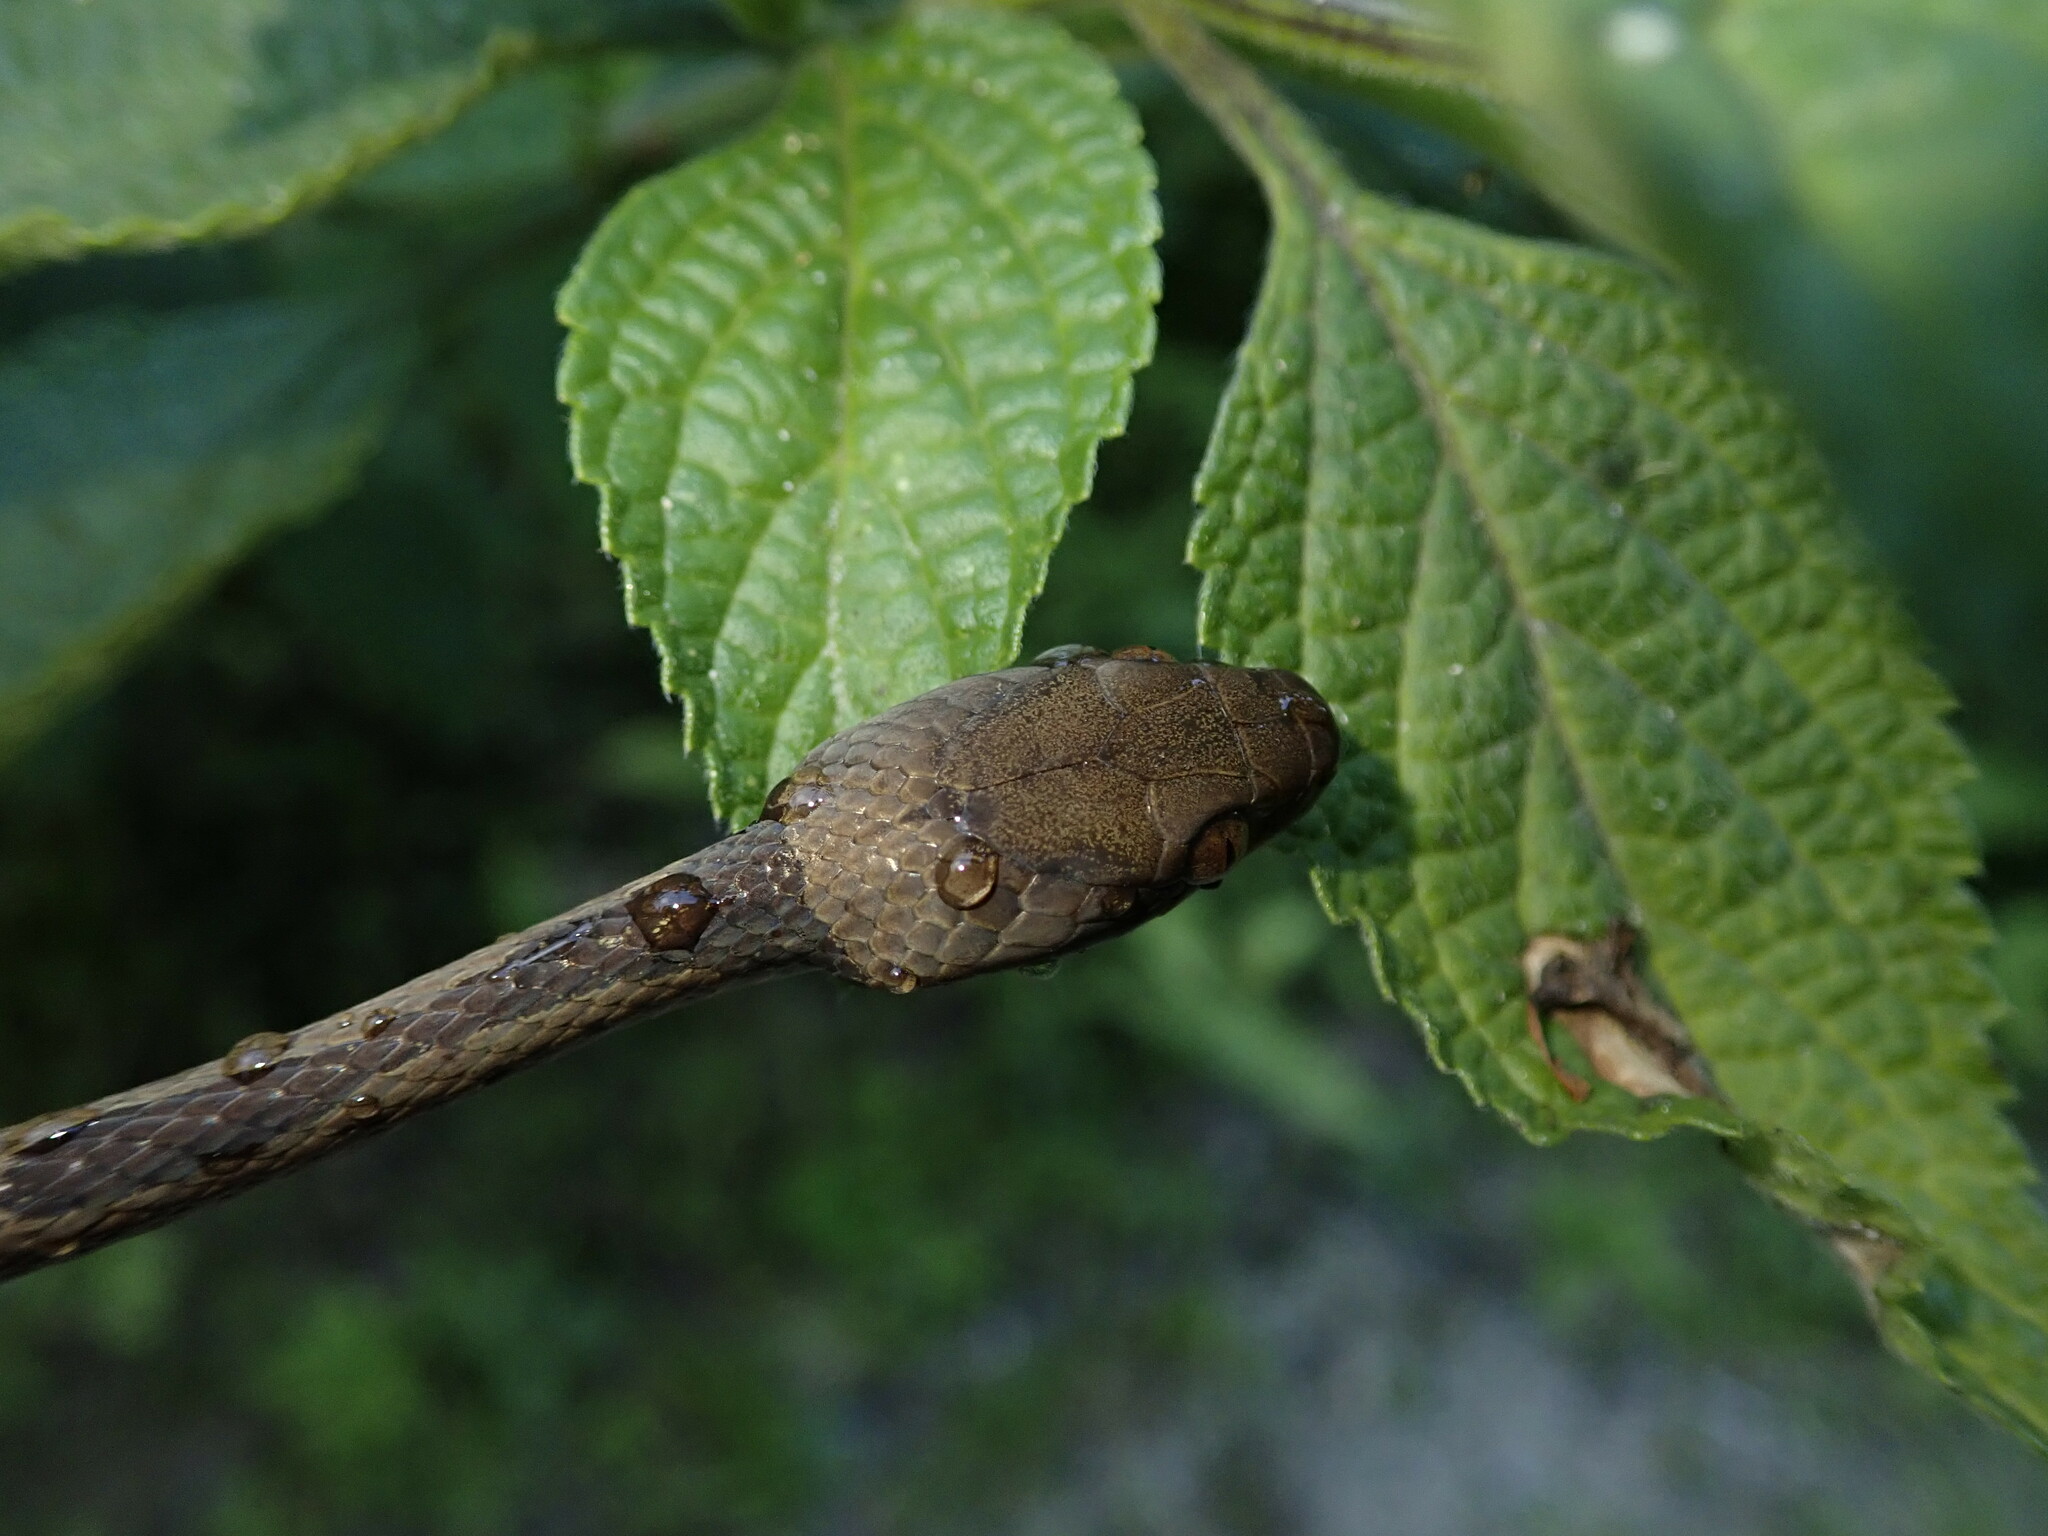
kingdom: Animalia
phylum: Chordata
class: Squamata
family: Colubridae
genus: Leptodeira
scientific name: Leptodeira
